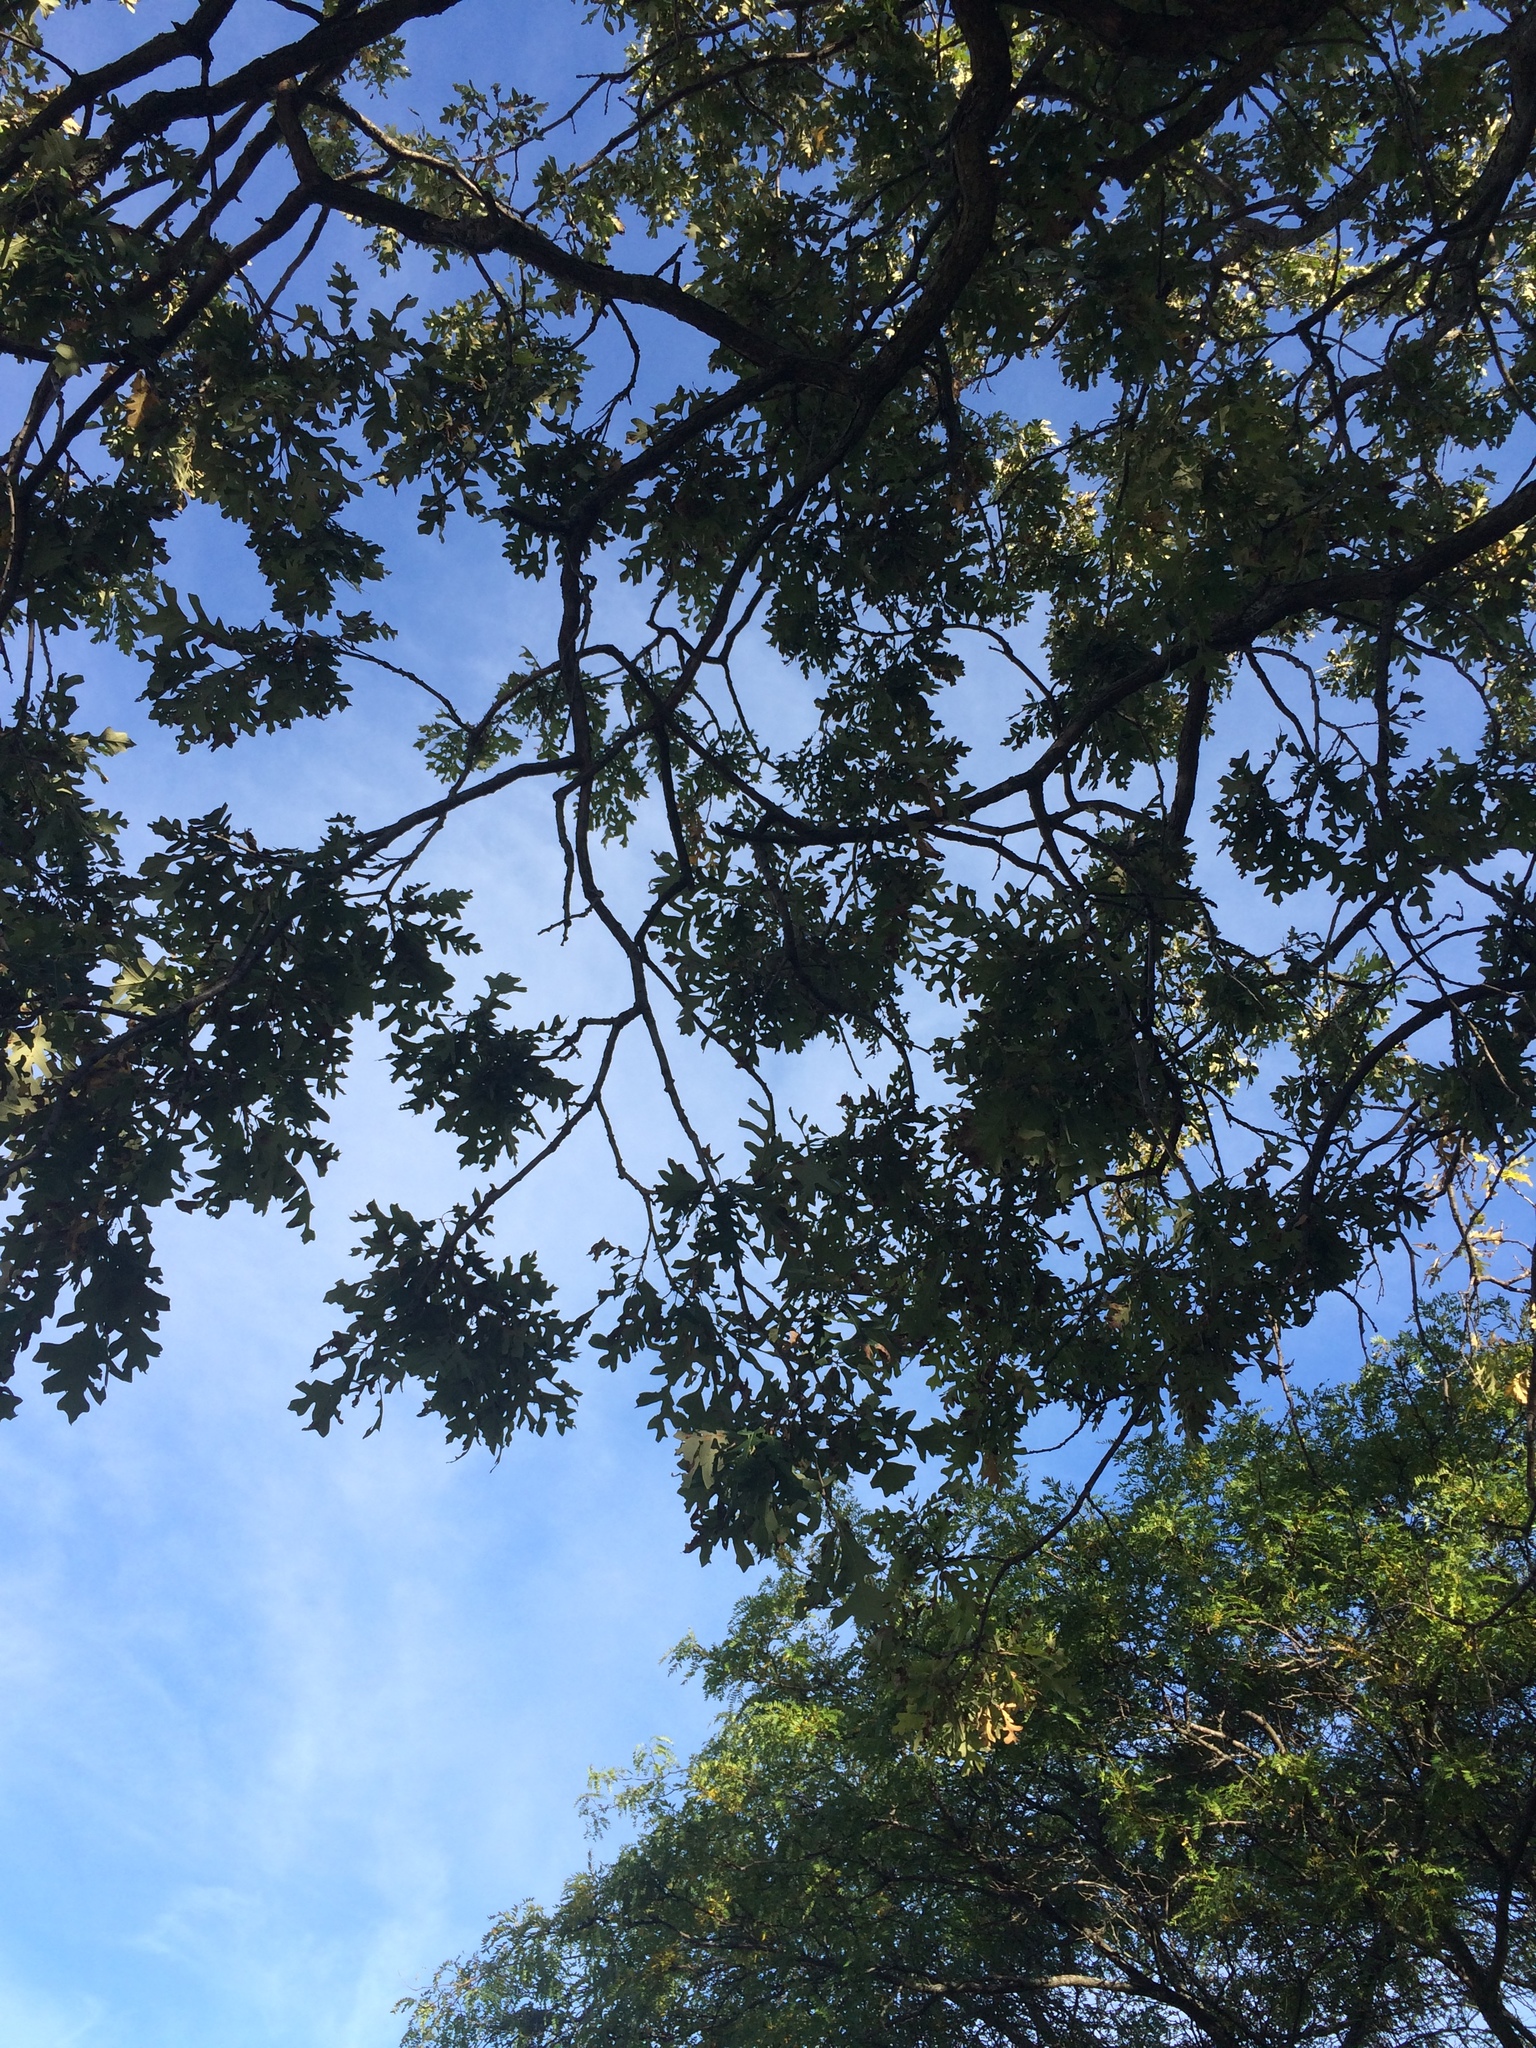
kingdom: Plantae
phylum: Tracheophyta
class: Magnoliopsida
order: Fagales
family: Fagaceae
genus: Quercus
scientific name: Quercus macrocarpa
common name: Bur oak
